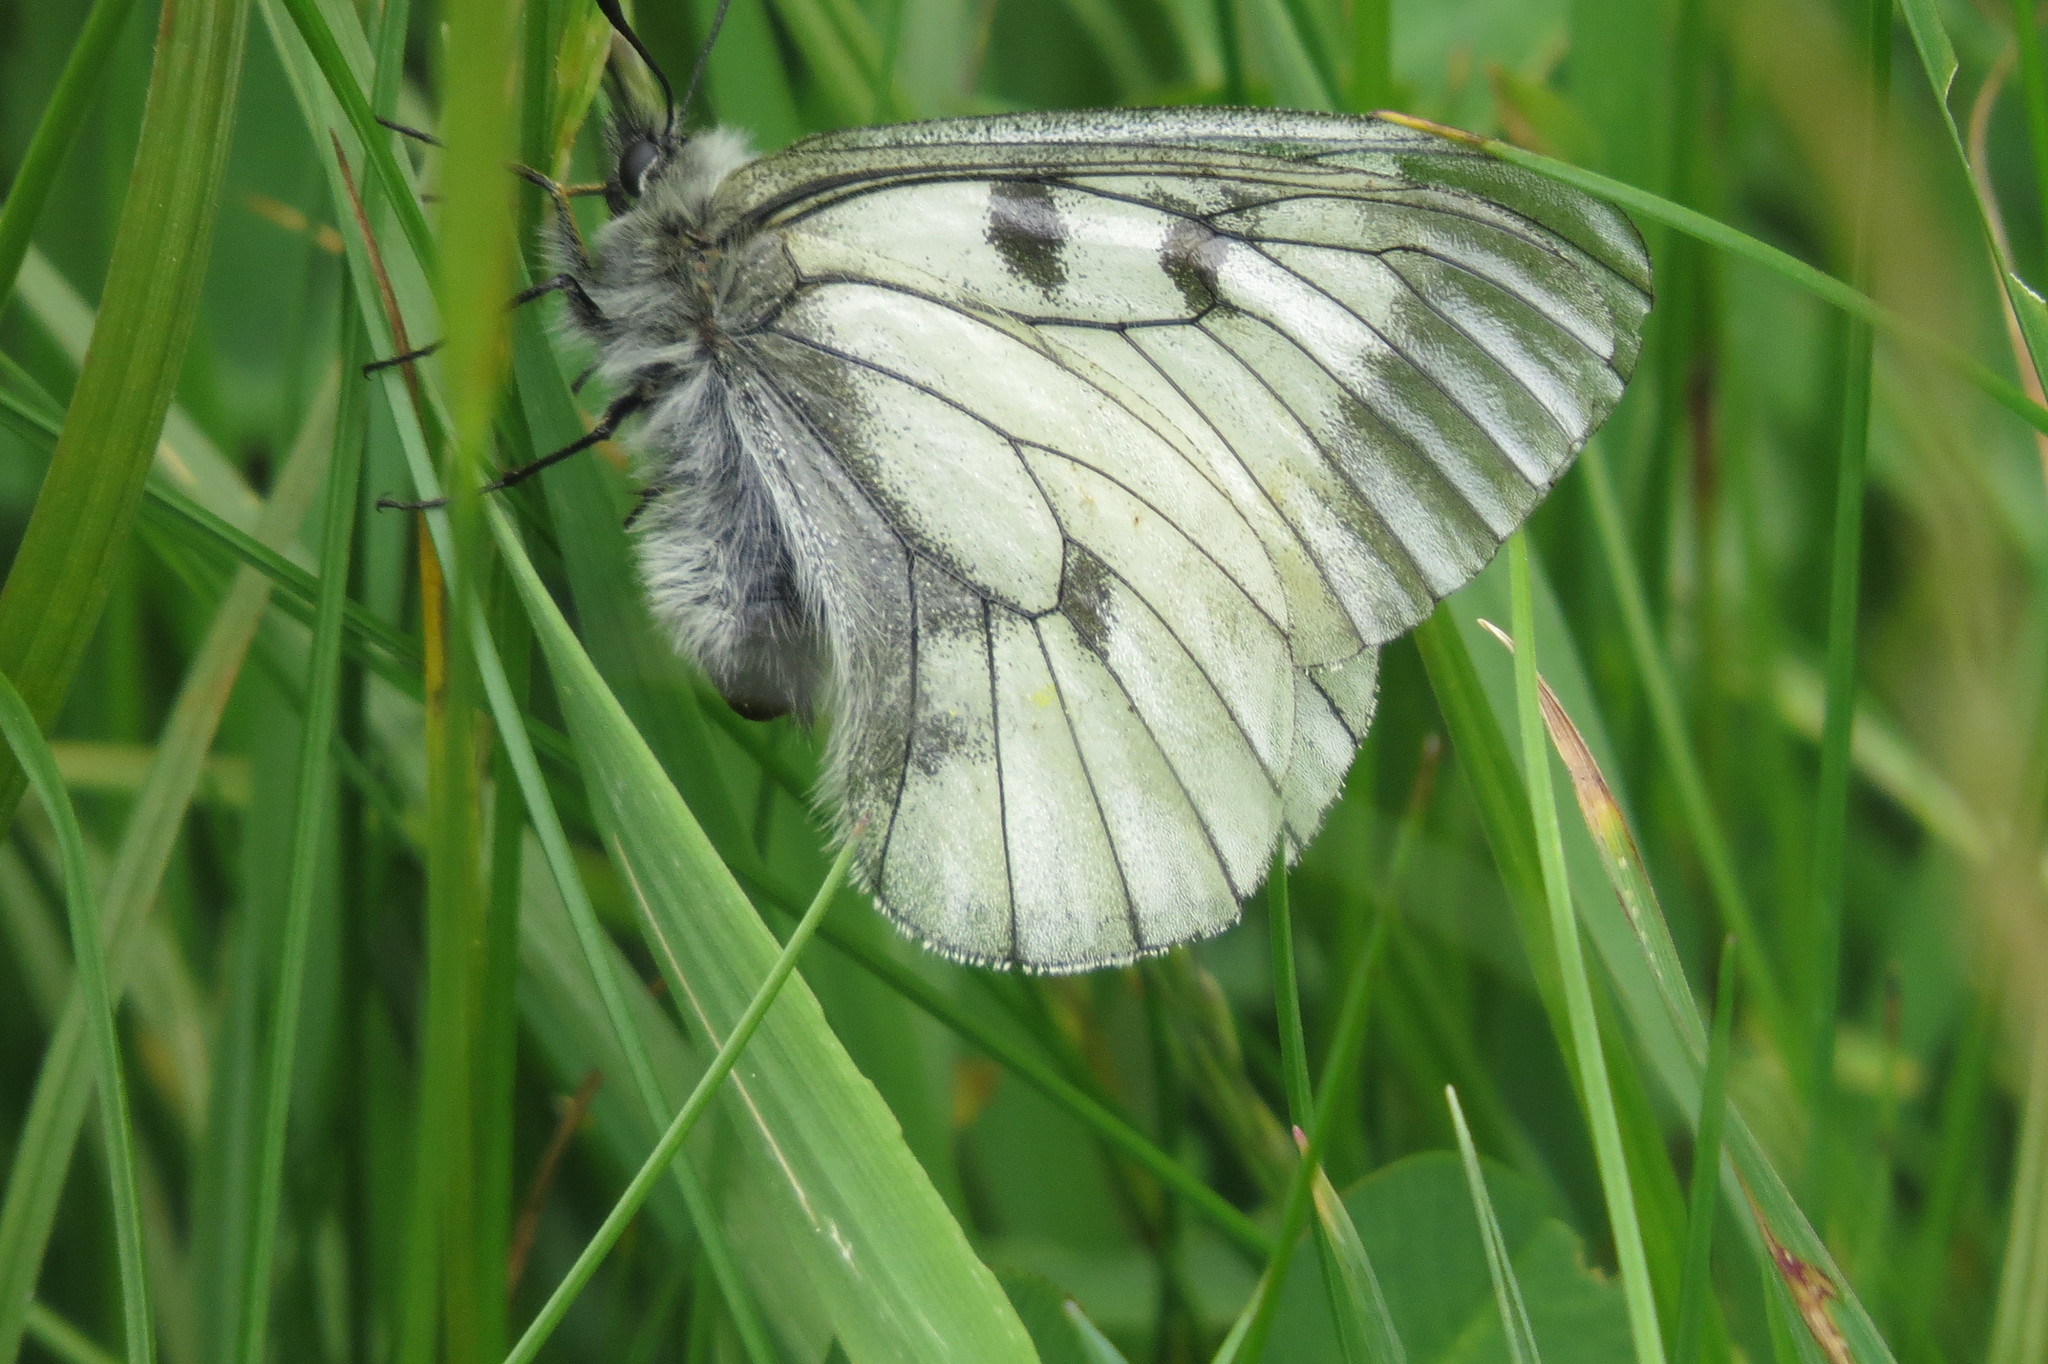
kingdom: Animalia
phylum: Arthropoda
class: Insecta
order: Lepidoptera
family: Papilionidae
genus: Parnassius
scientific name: Parnassius mnemosyne
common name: Clouded apollo
